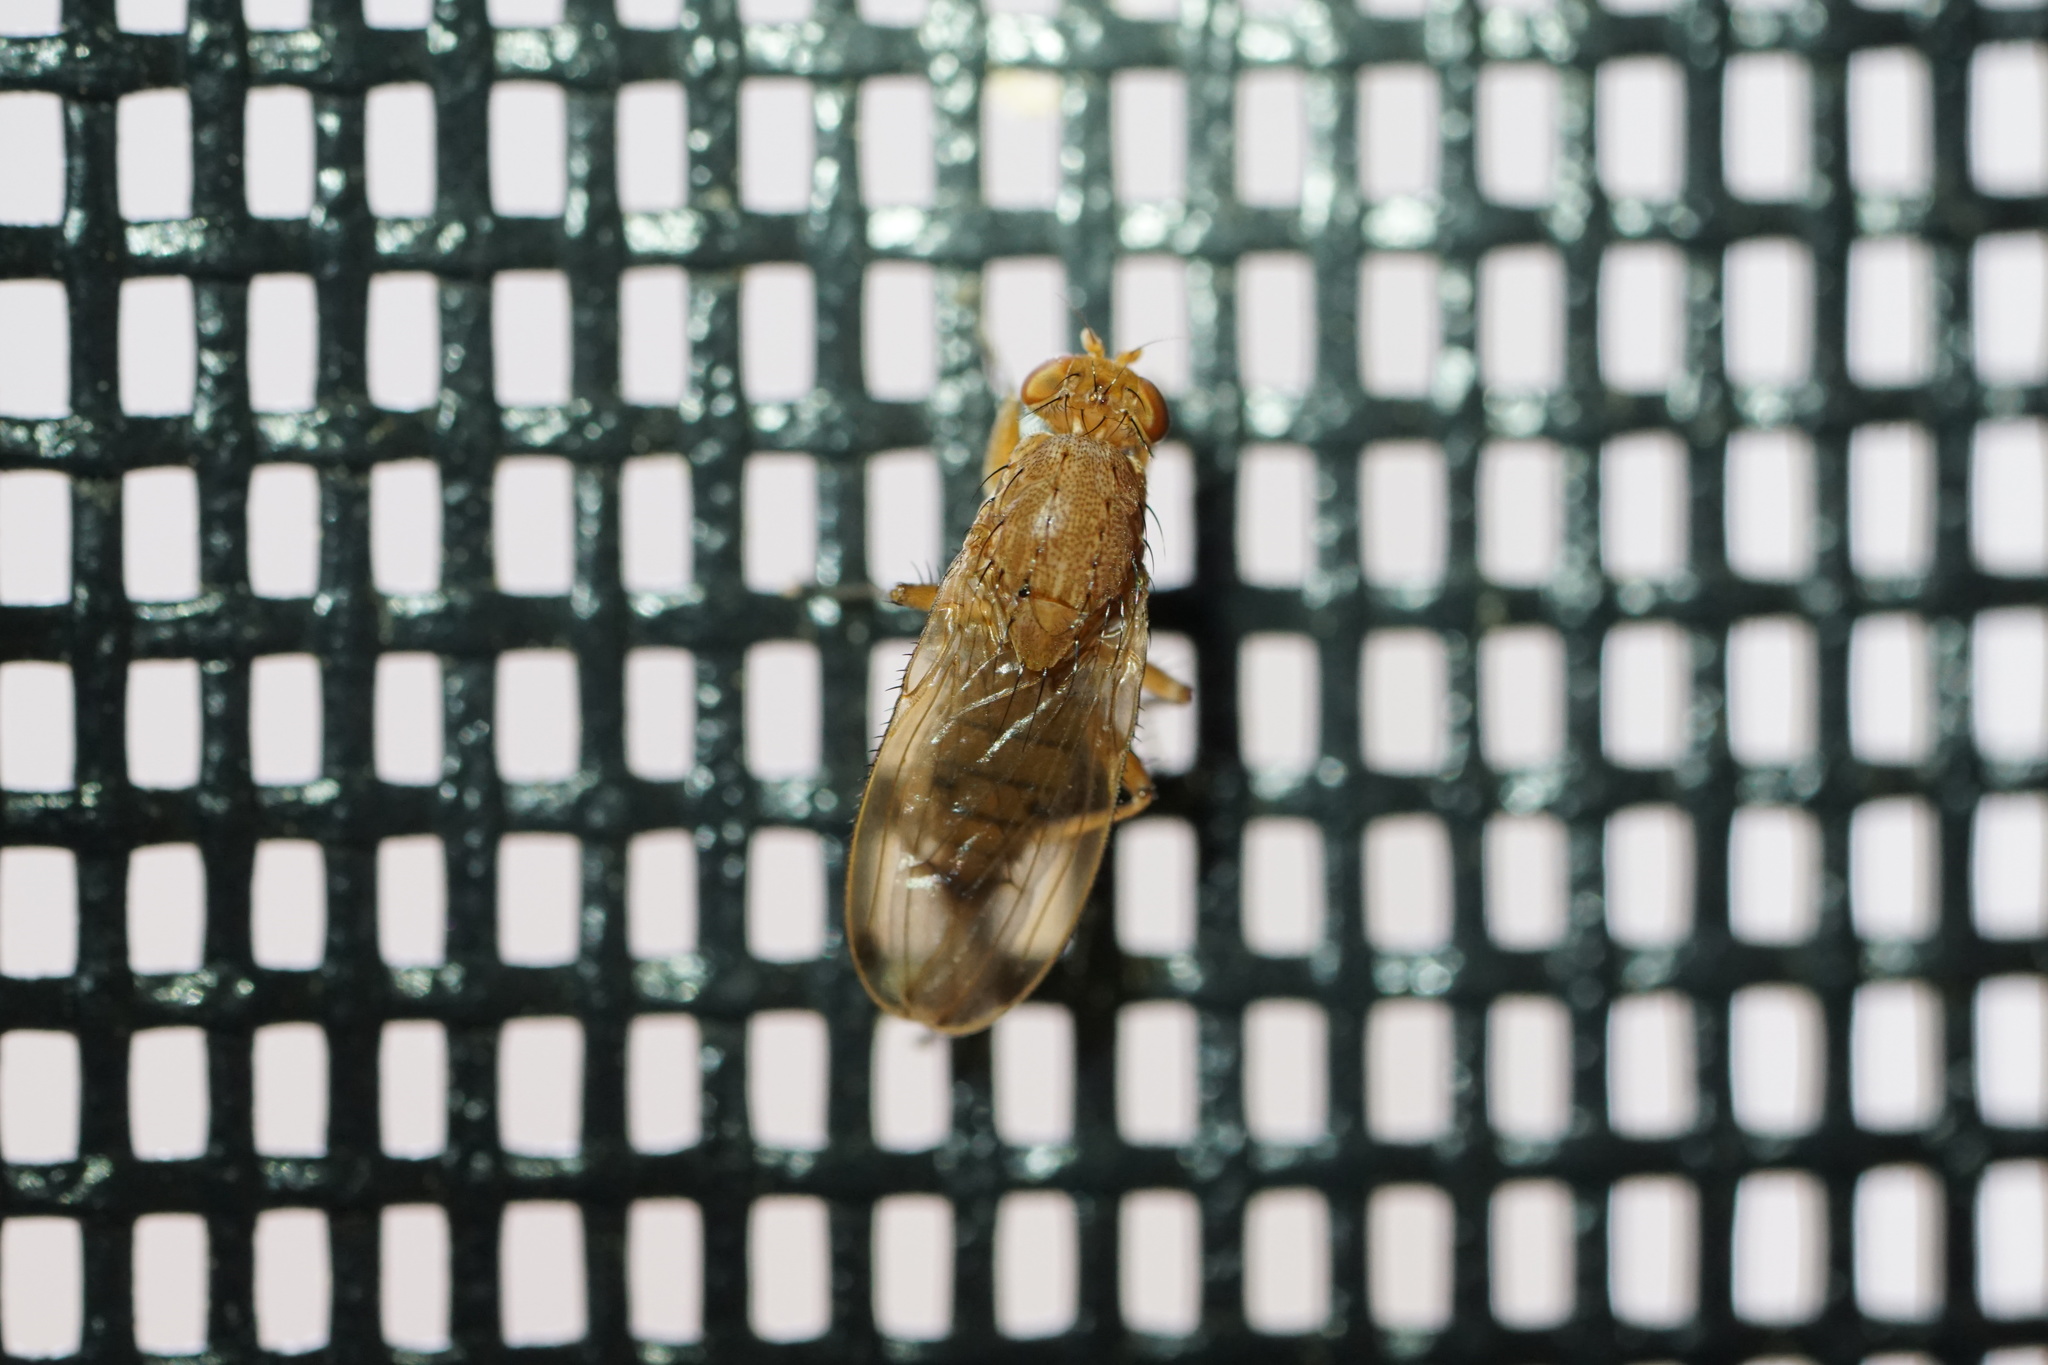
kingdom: Animalia
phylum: Arthropoda
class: Insecta
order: Diptera
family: Heleomyzidae
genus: Suillia
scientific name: Suillia quinquepunctata
